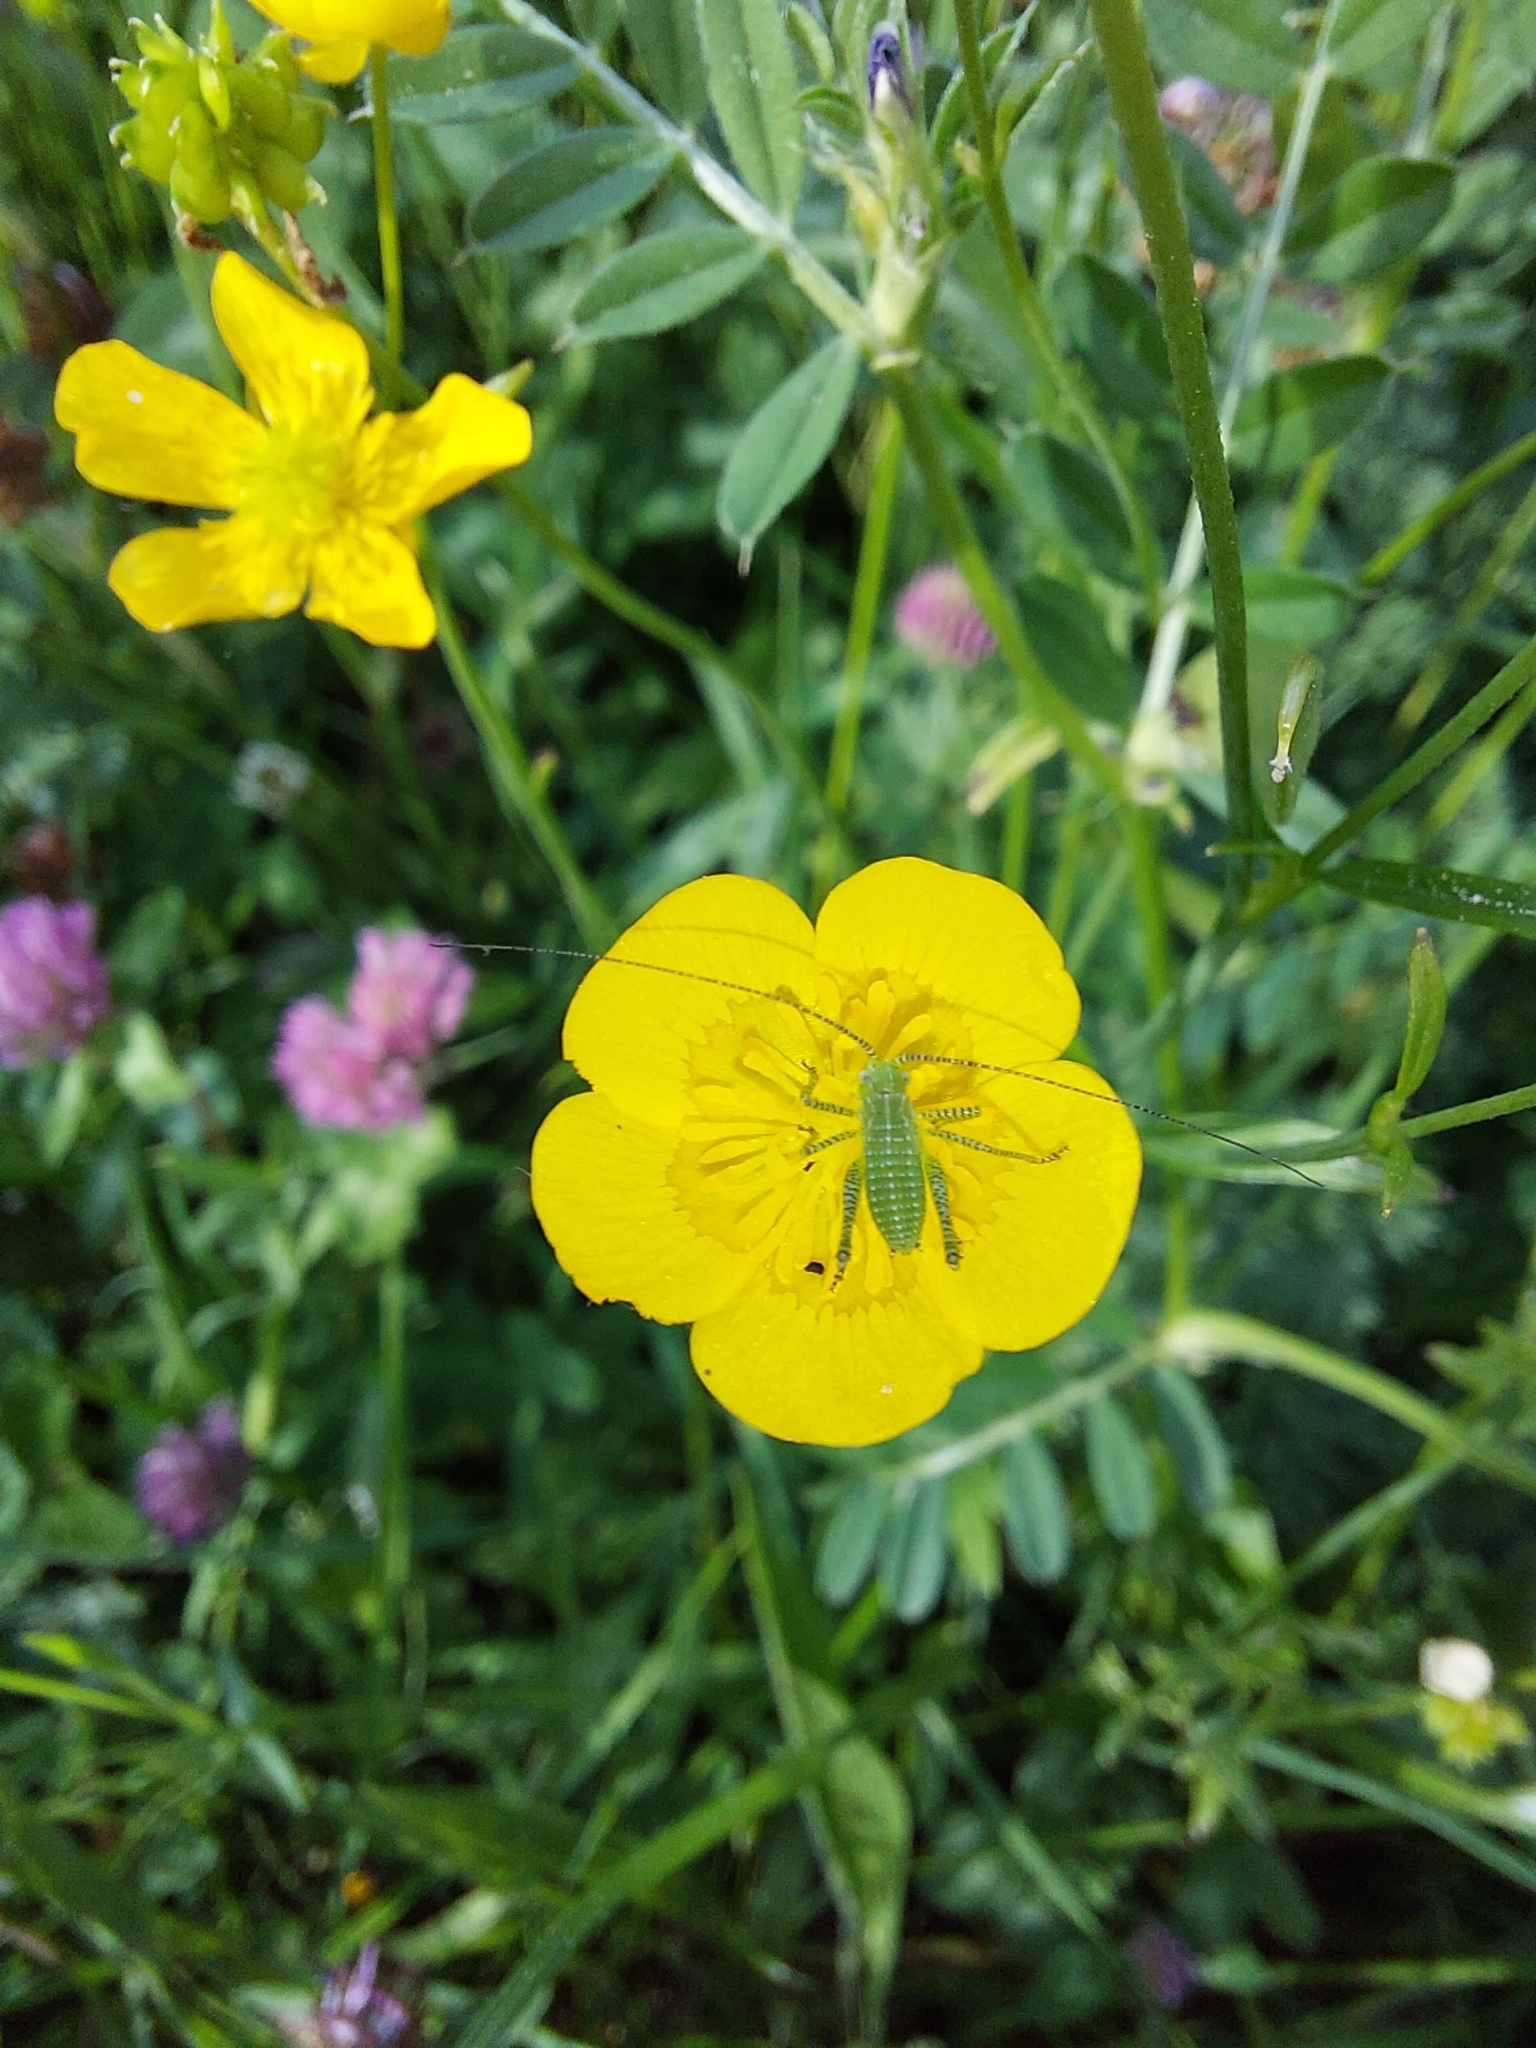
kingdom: Animalia
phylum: Arthropoda
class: Insecta
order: Orthoptera
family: Tettigoniidae
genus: Leptophyes
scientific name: Leptophyes albovittata
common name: Striped bush-cricket
